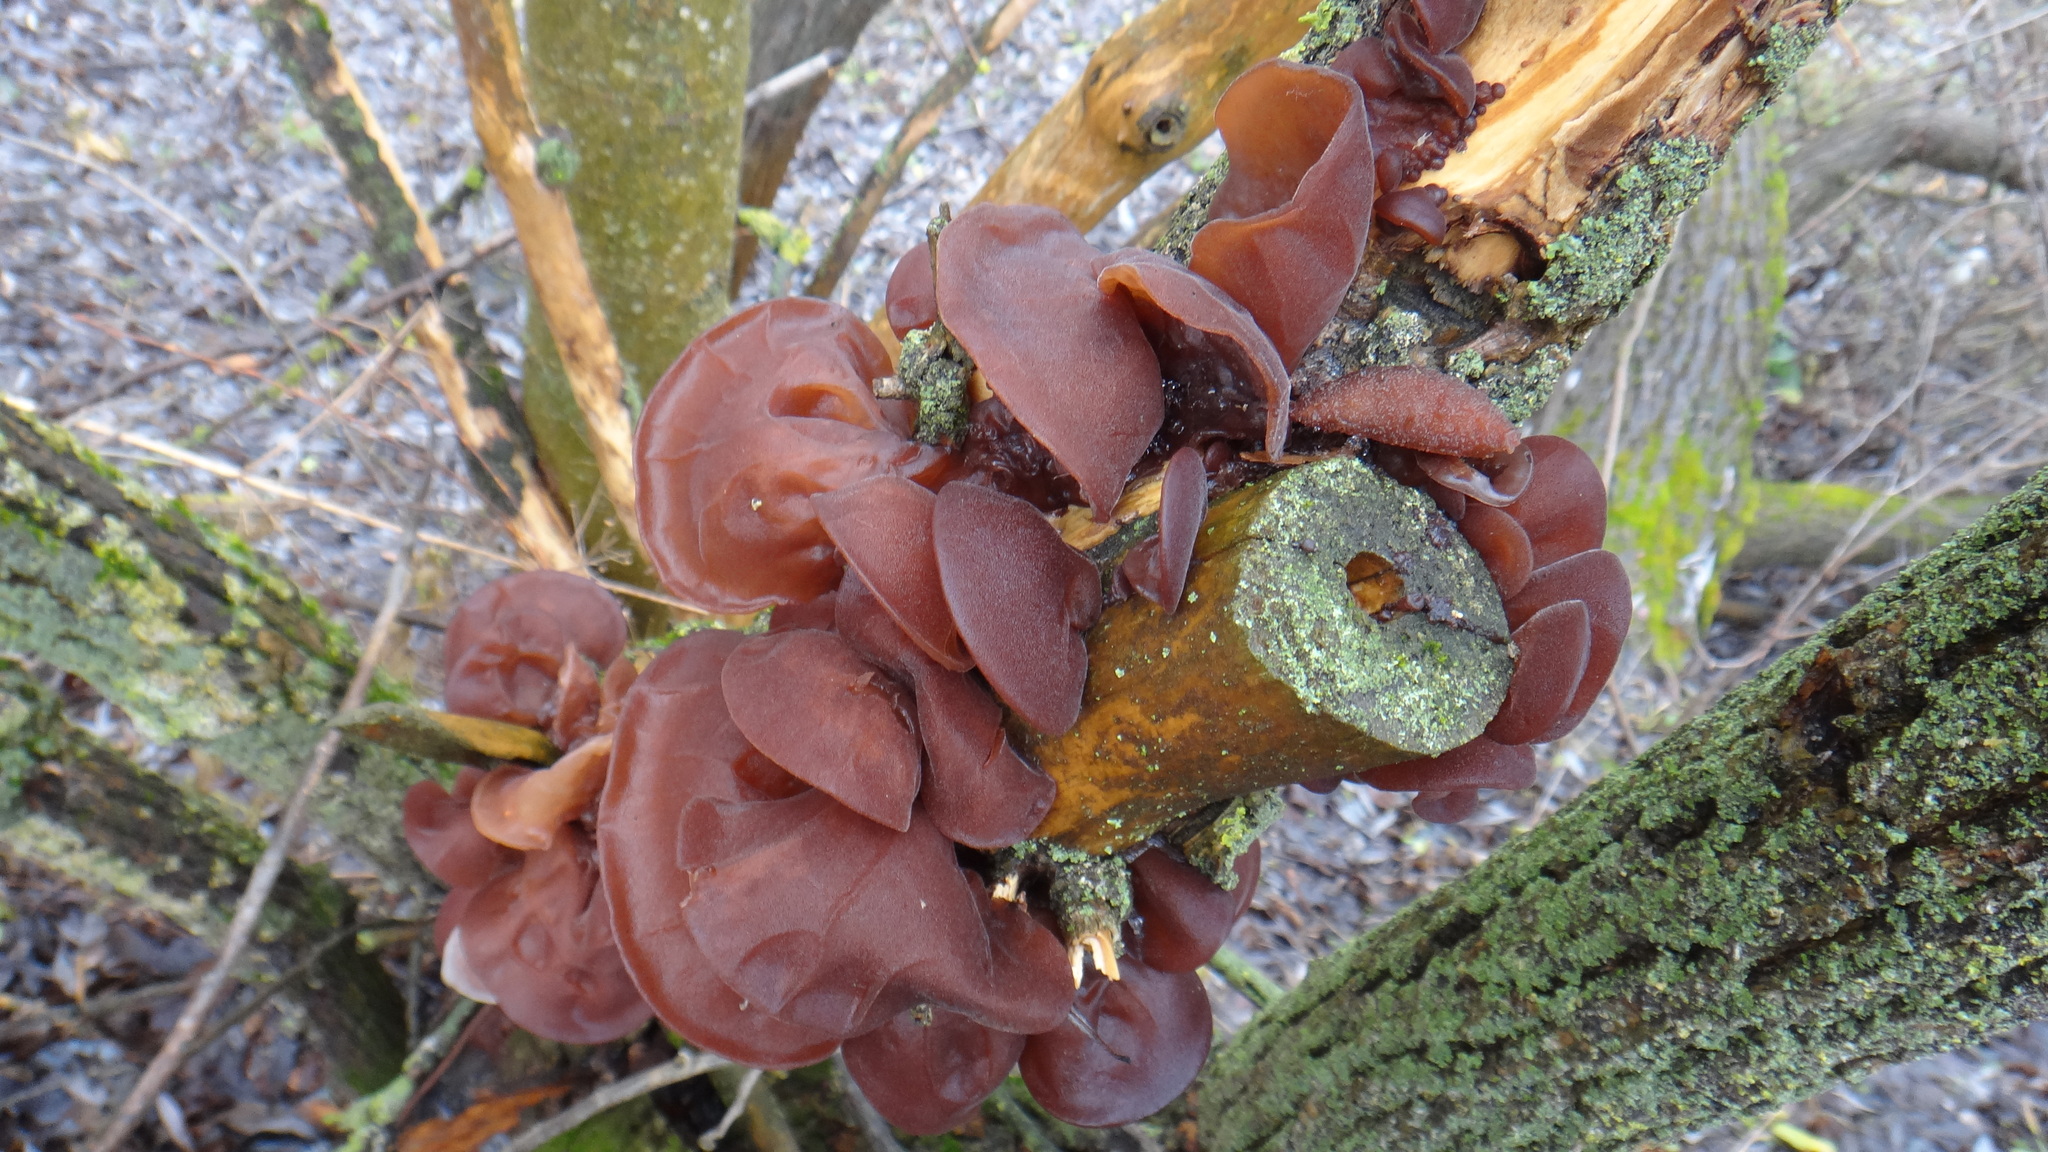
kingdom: Fungi
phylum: Basidiomycota
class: Agaricomycetes
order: Auriculariales
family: Auriculariaceae
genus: Auricularia
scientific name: Auricularia auricula-judae
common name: Jelly ear
